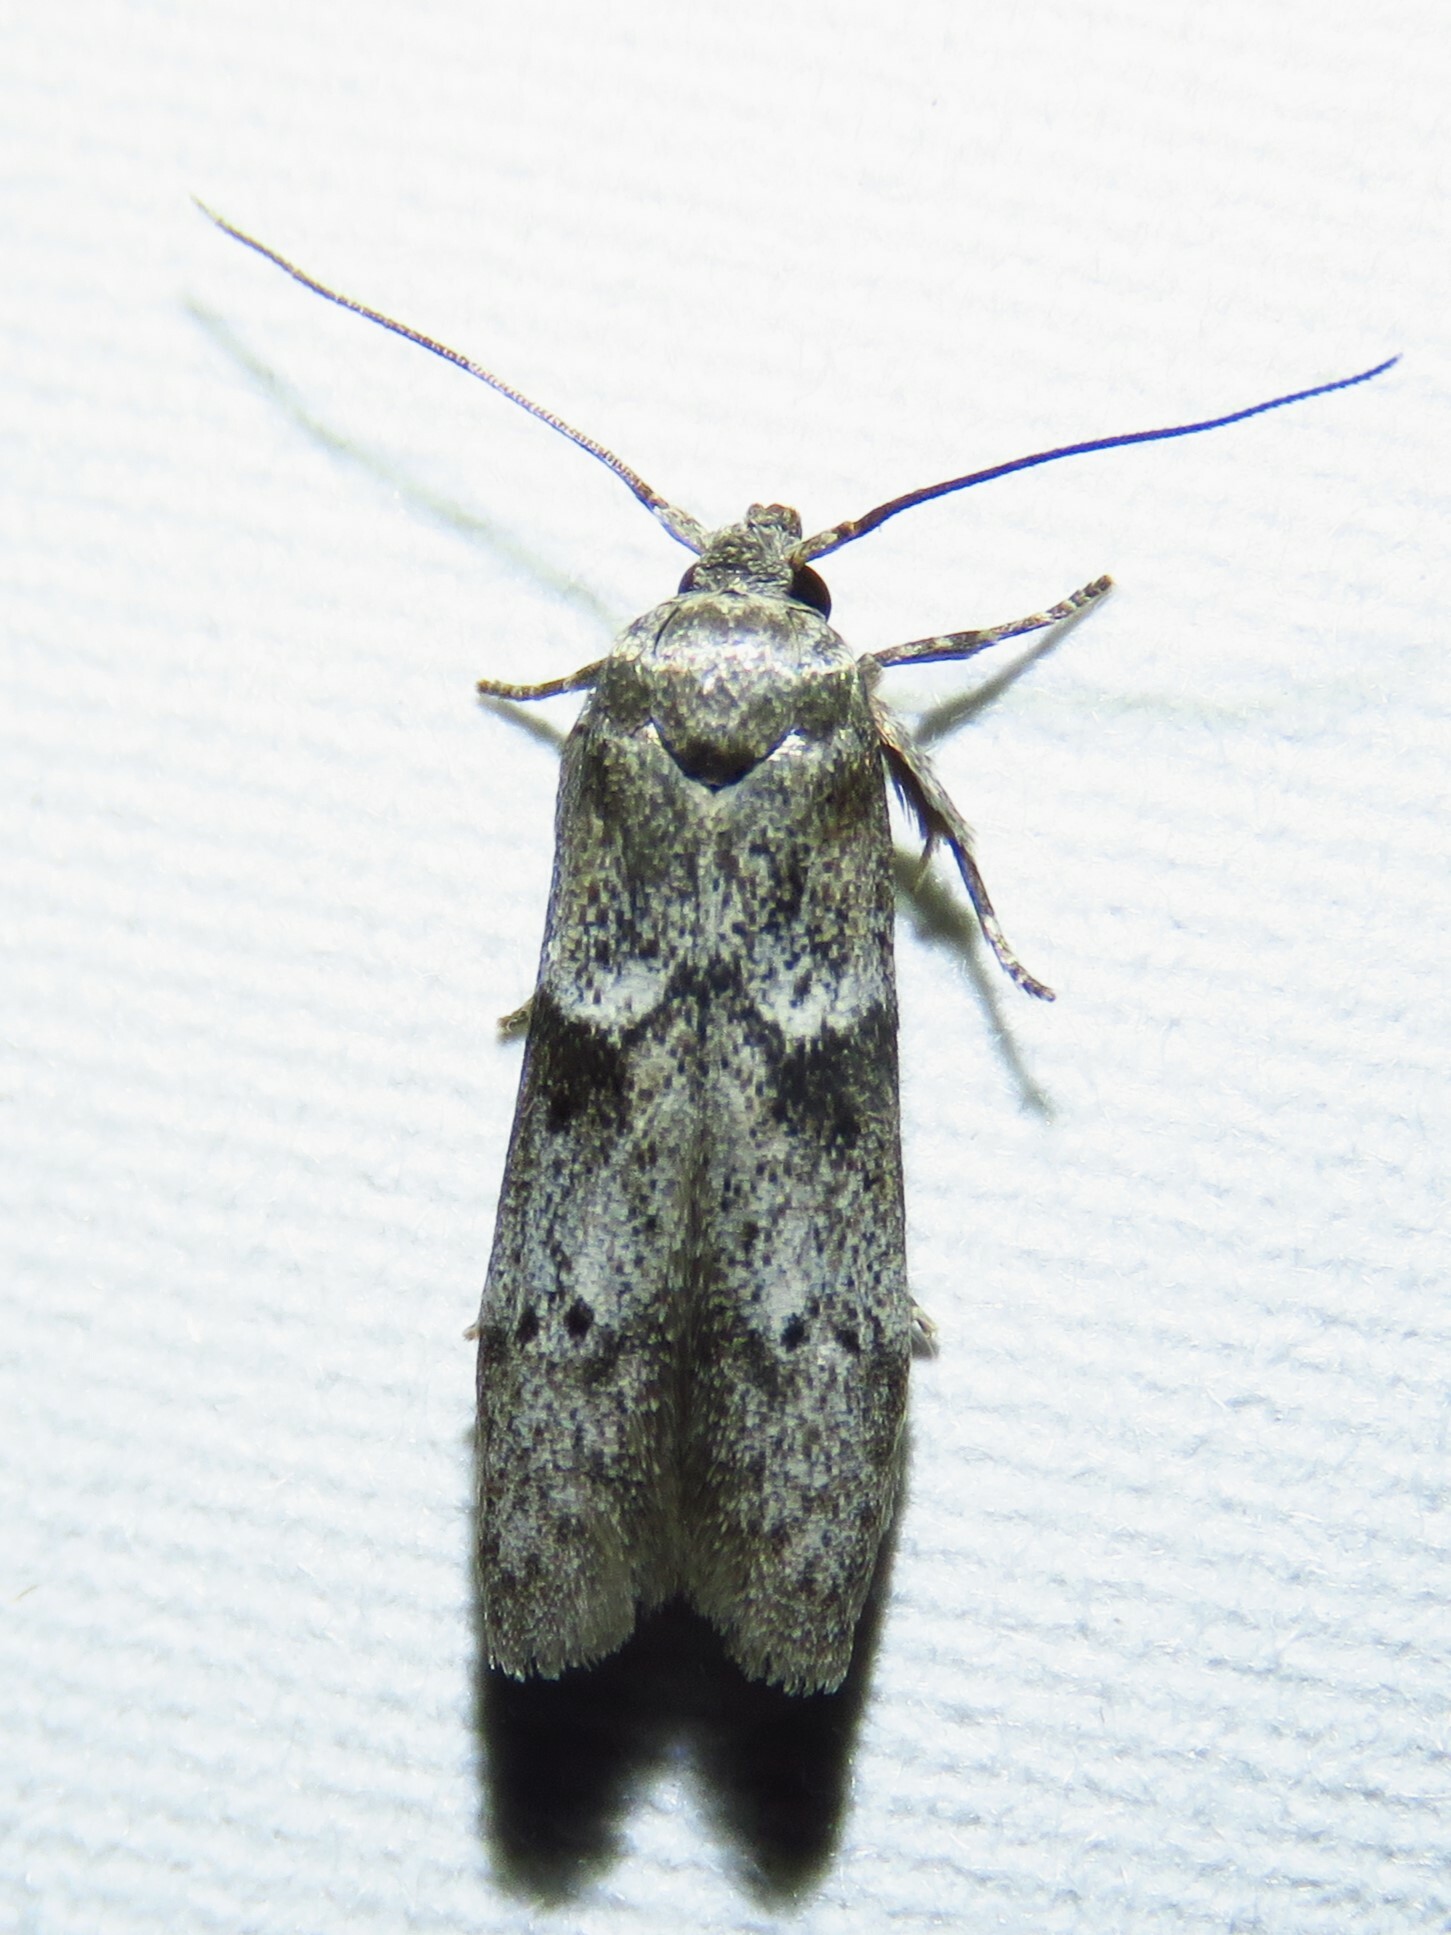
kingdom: Animalia
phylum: Arthropoda
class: Insecta
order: Lepidoptera
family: Blastobasidae
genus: Blastobasis
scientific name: Blastobasis glandulella
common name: Acorn moth
